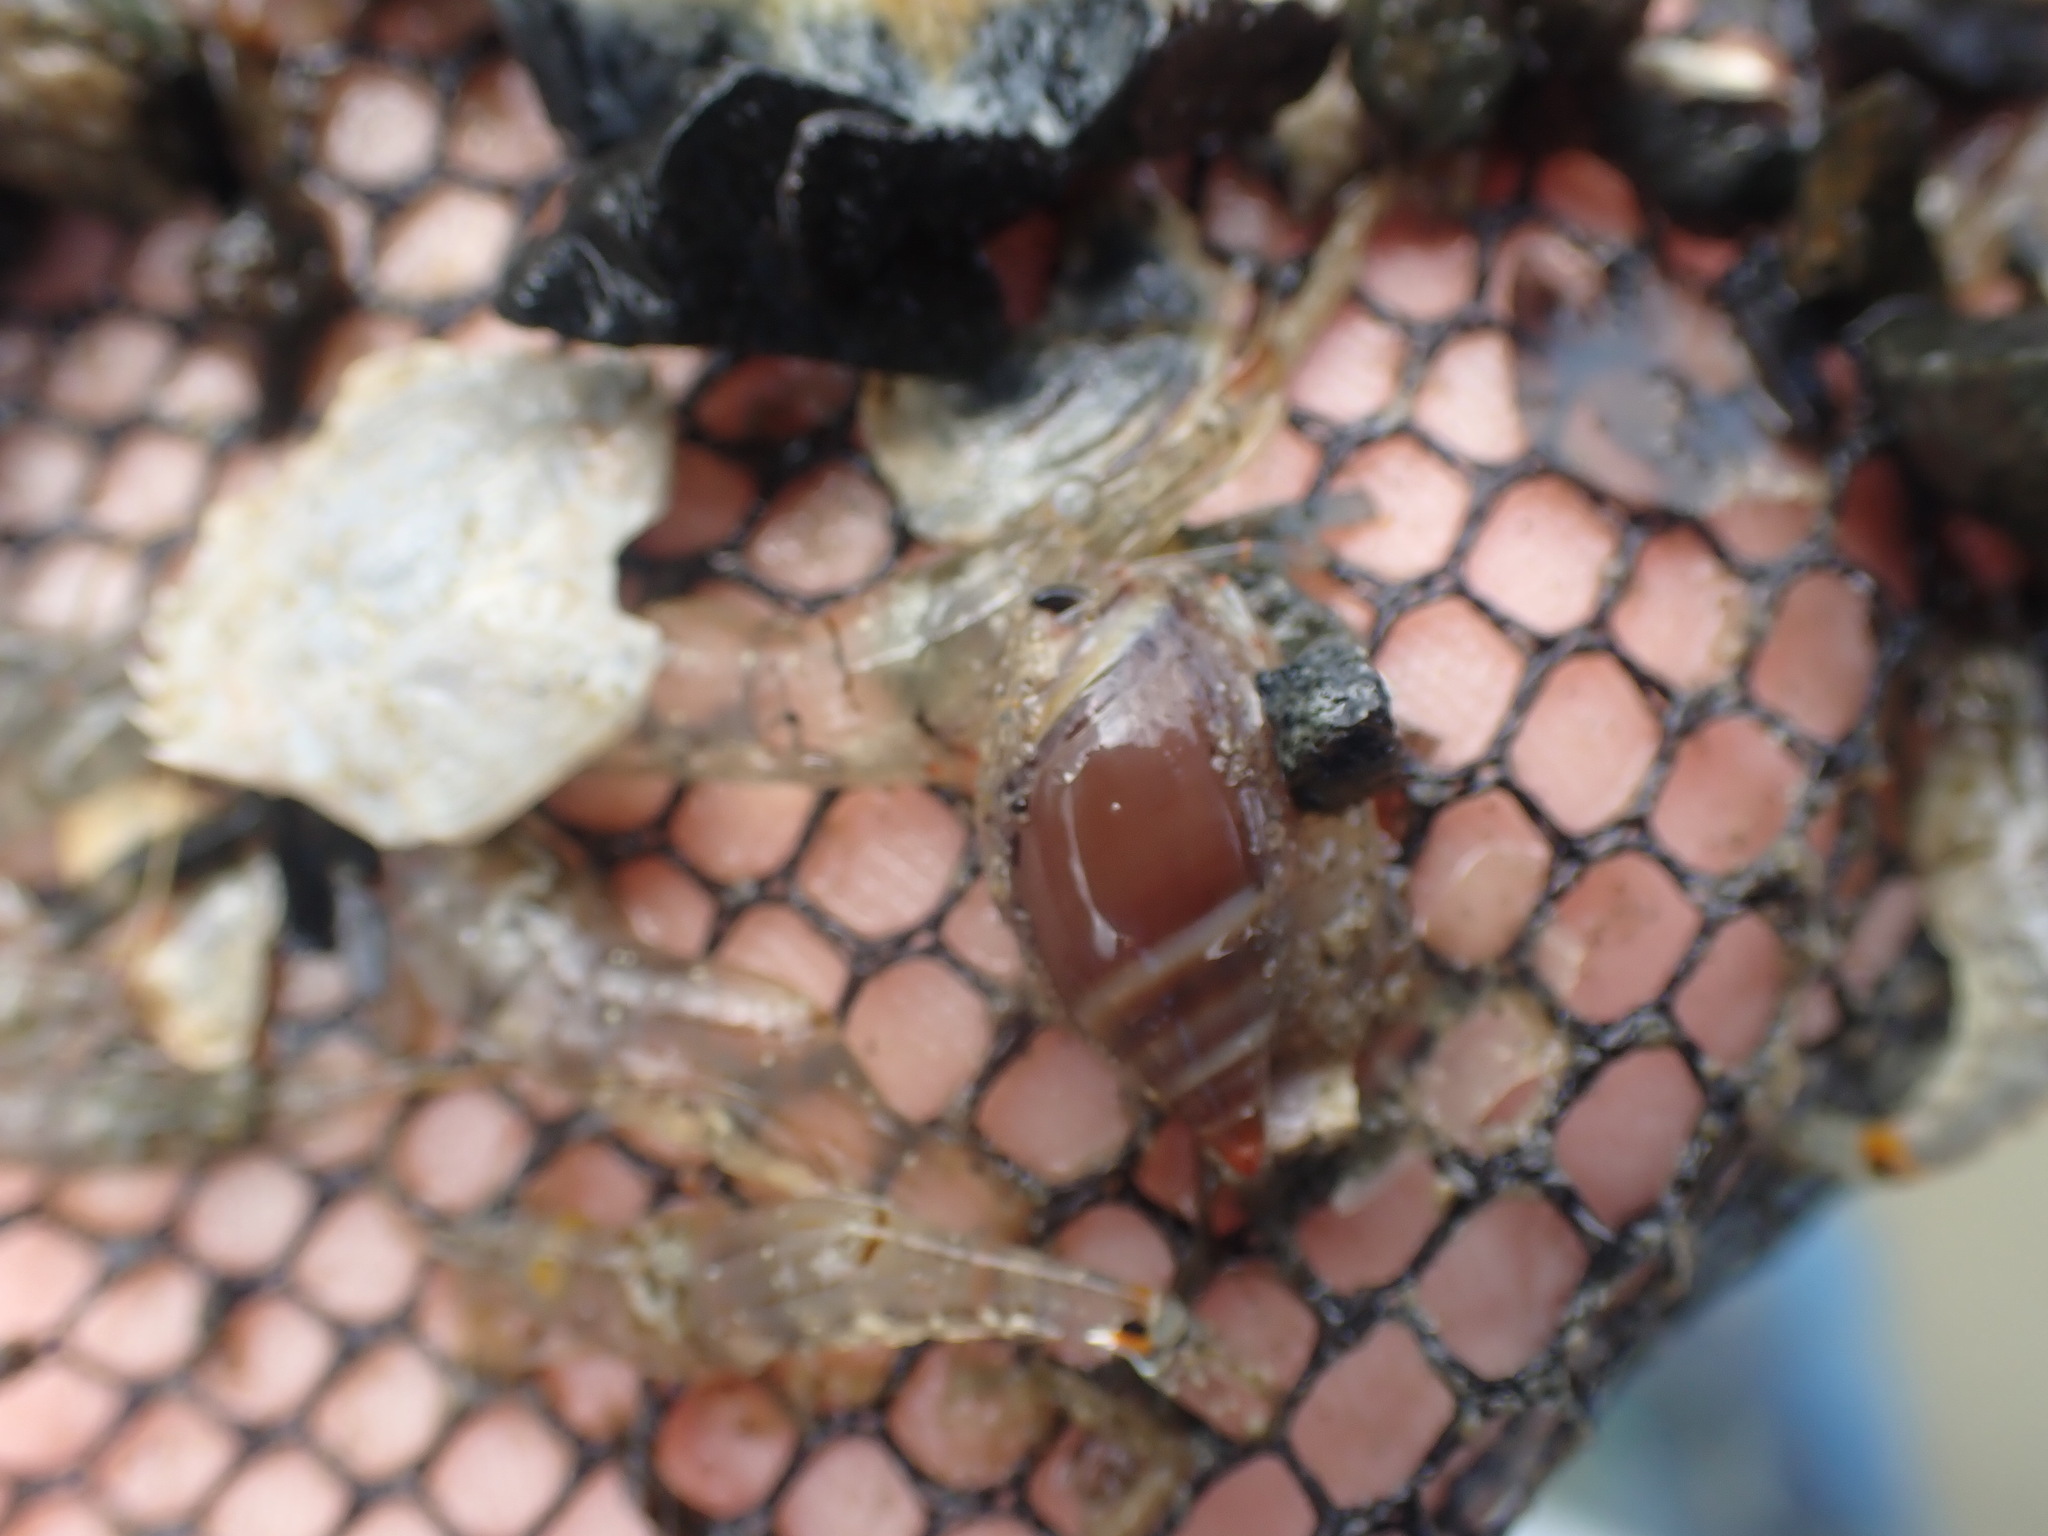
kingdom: Animalia
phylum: Mollusca
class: Gastropoda
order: Neogastropoda
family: Ancillariidae
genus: Amalda
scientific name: Amalda australis
